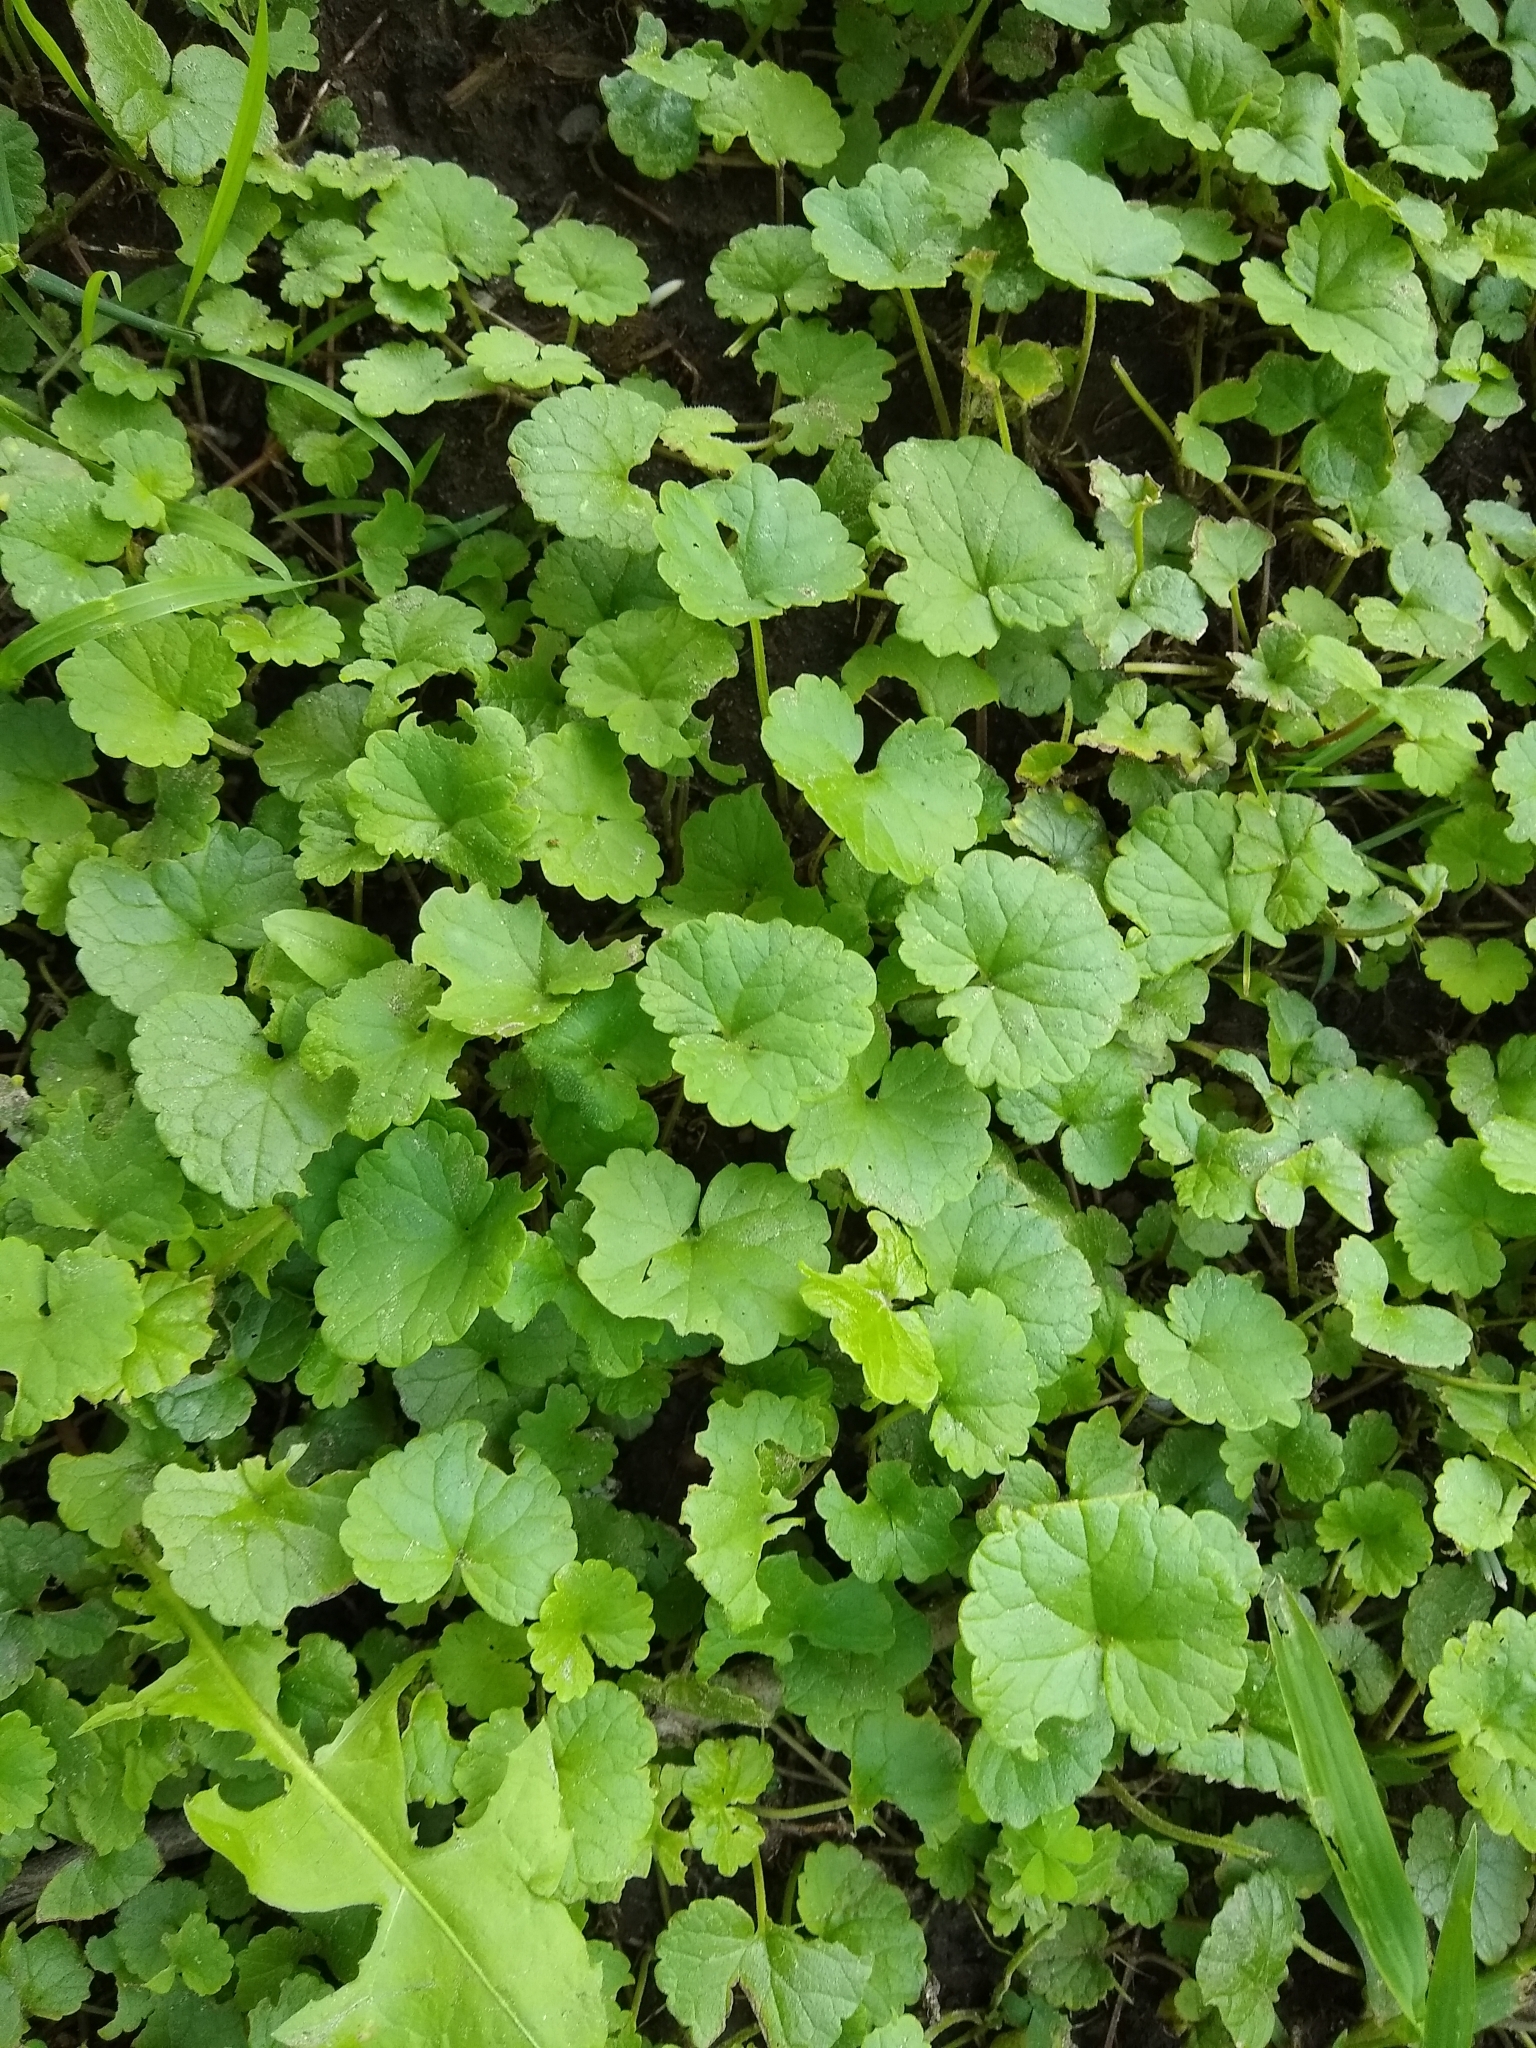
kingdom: Plantae
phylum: Tracheophyta
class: Magnoliopsida
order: Lamiales
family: Lamiaceae
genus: Glechoma
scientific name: Glechoma hederacea
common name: Ground ivy
